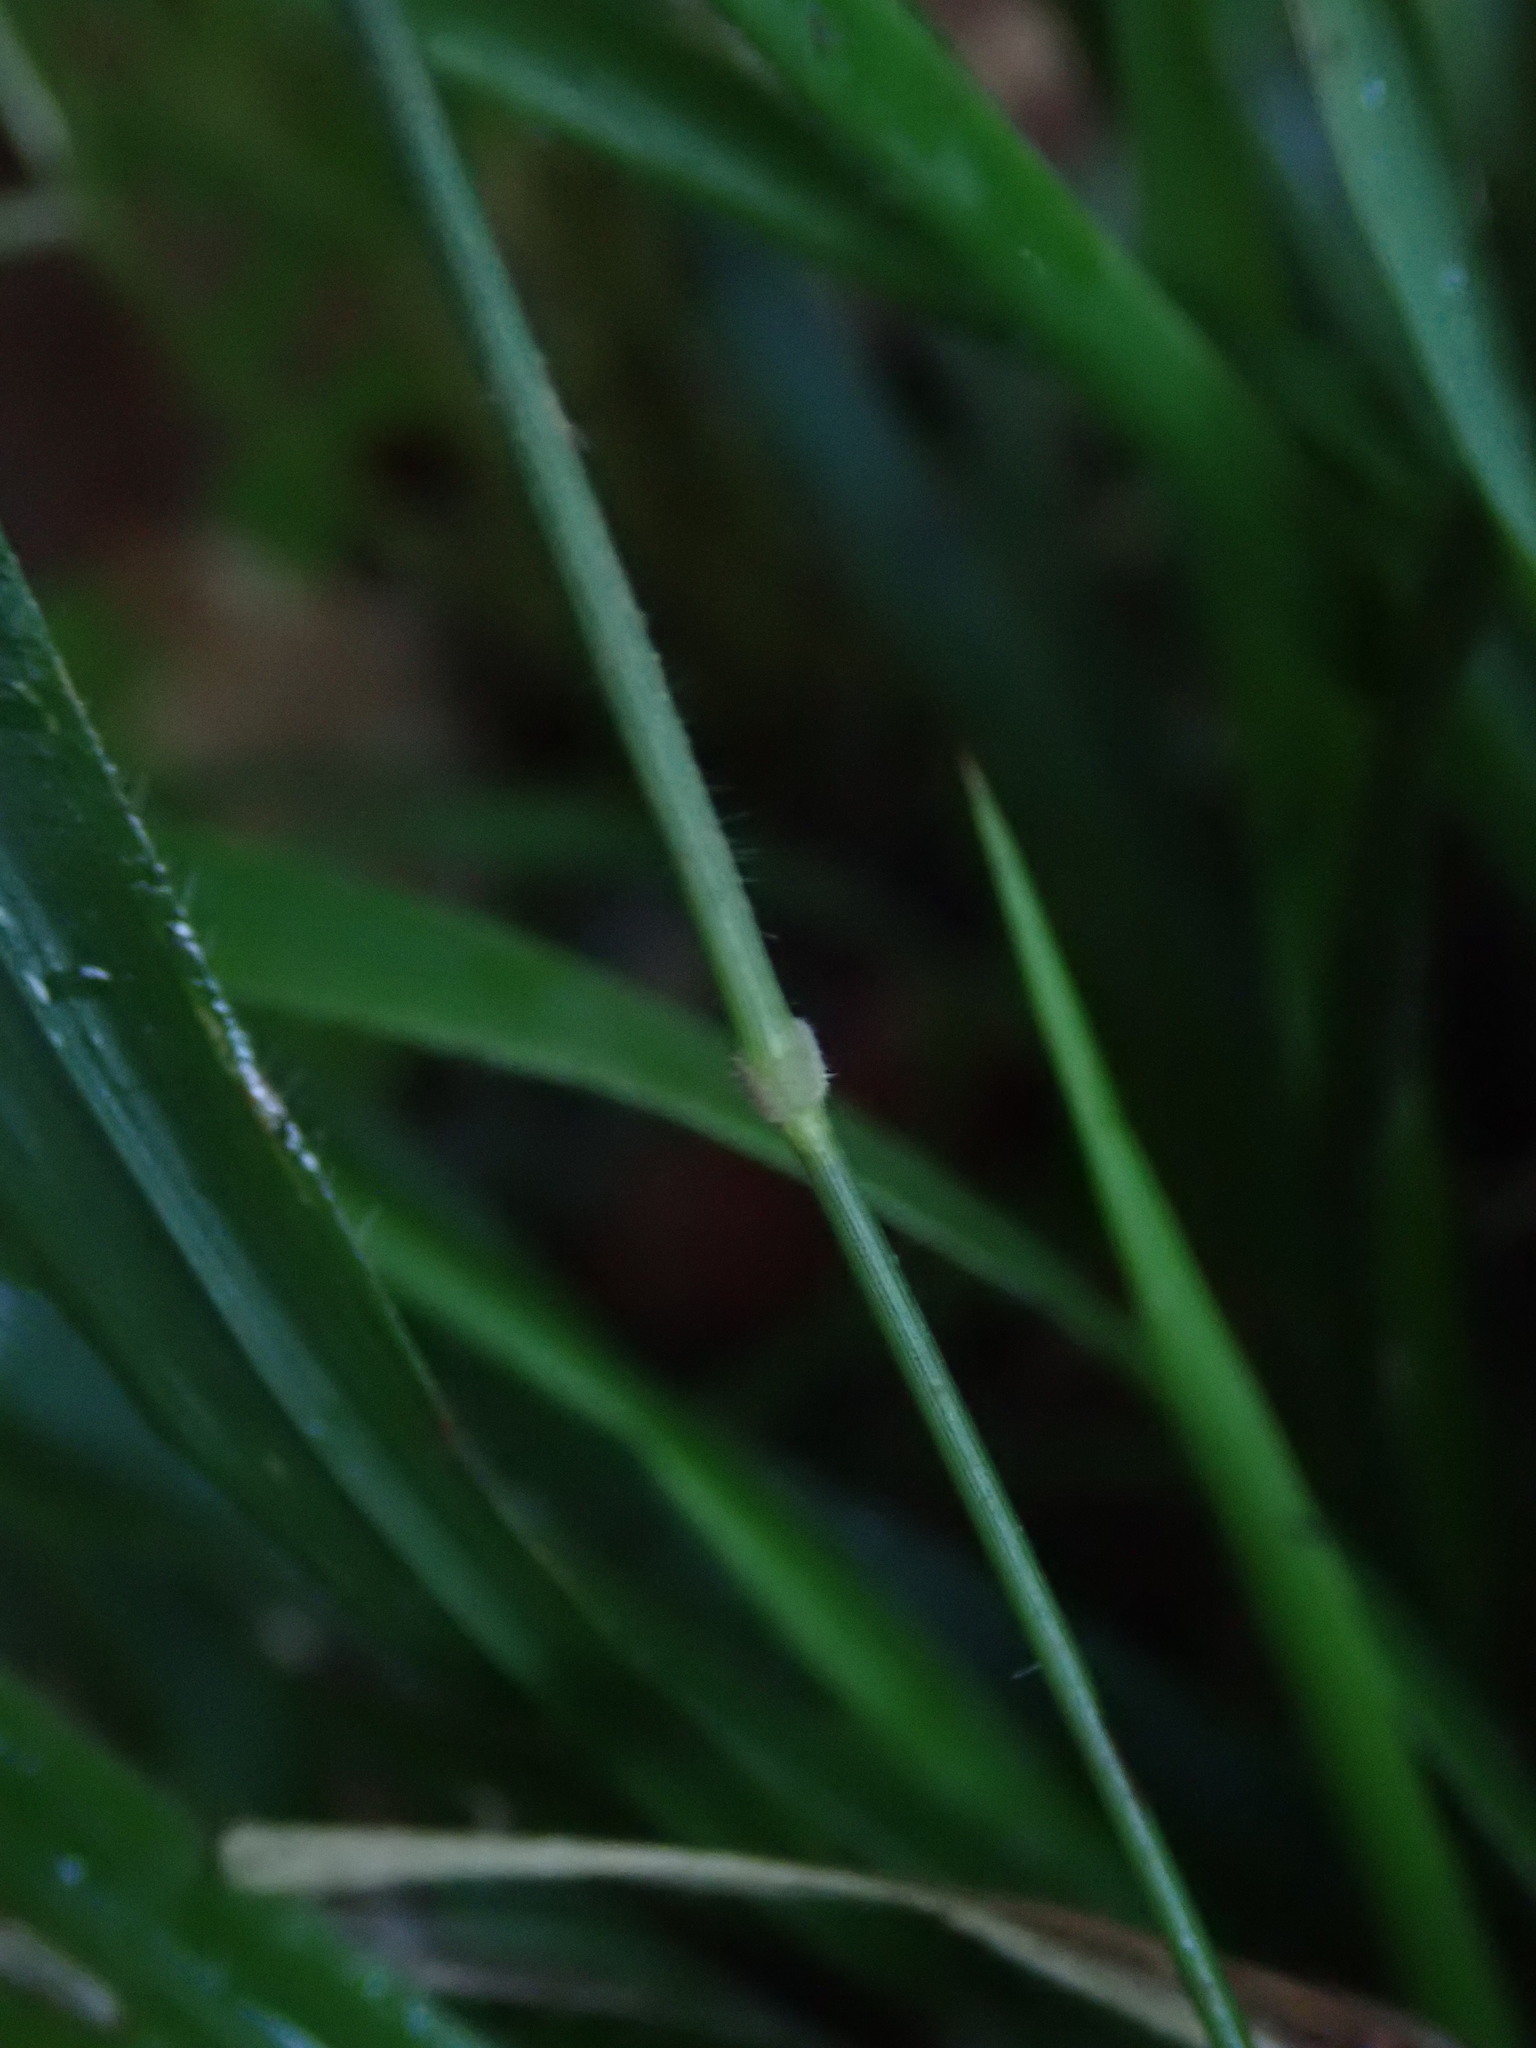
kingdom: Plantae
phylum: Tracheophyta
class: Liliopsida
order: Poales
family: Poaceae
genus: Brachypodium
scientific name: Brachypodium sylvaticum
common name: False-brome
